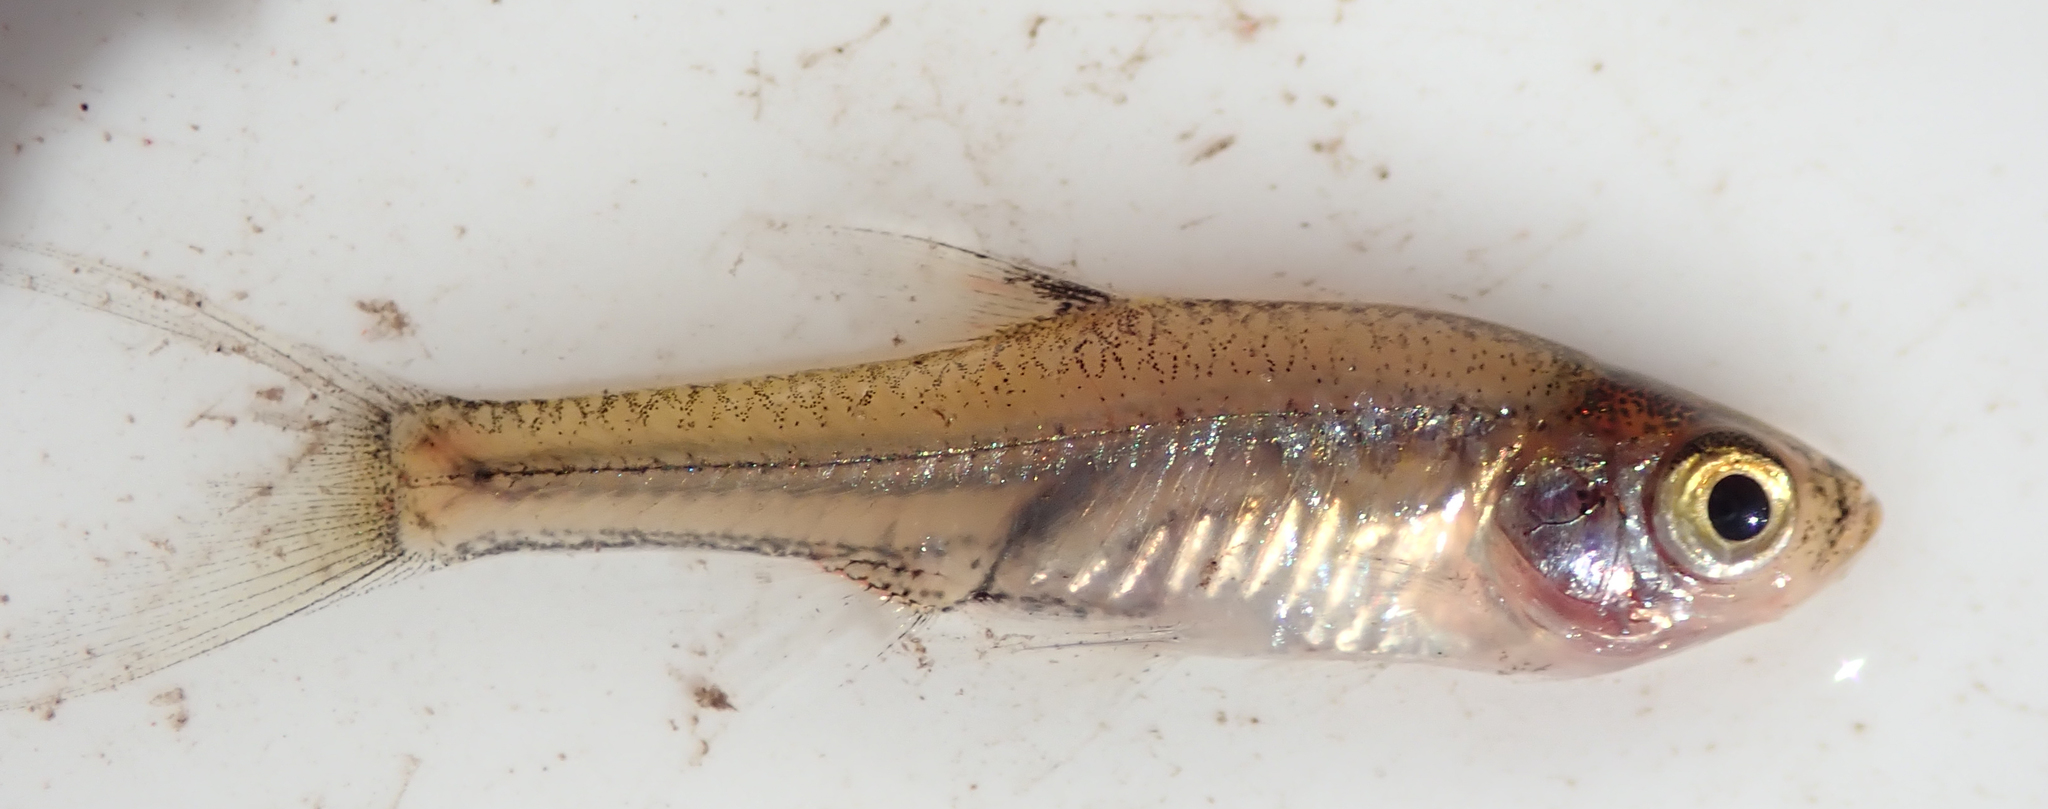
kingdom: Animalia
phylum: Chordata
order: Cypriniformes
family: Cyprinidae
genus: Coptostomabarbus
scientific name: Coptostomabarbus wittei
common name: Upjaw barb
